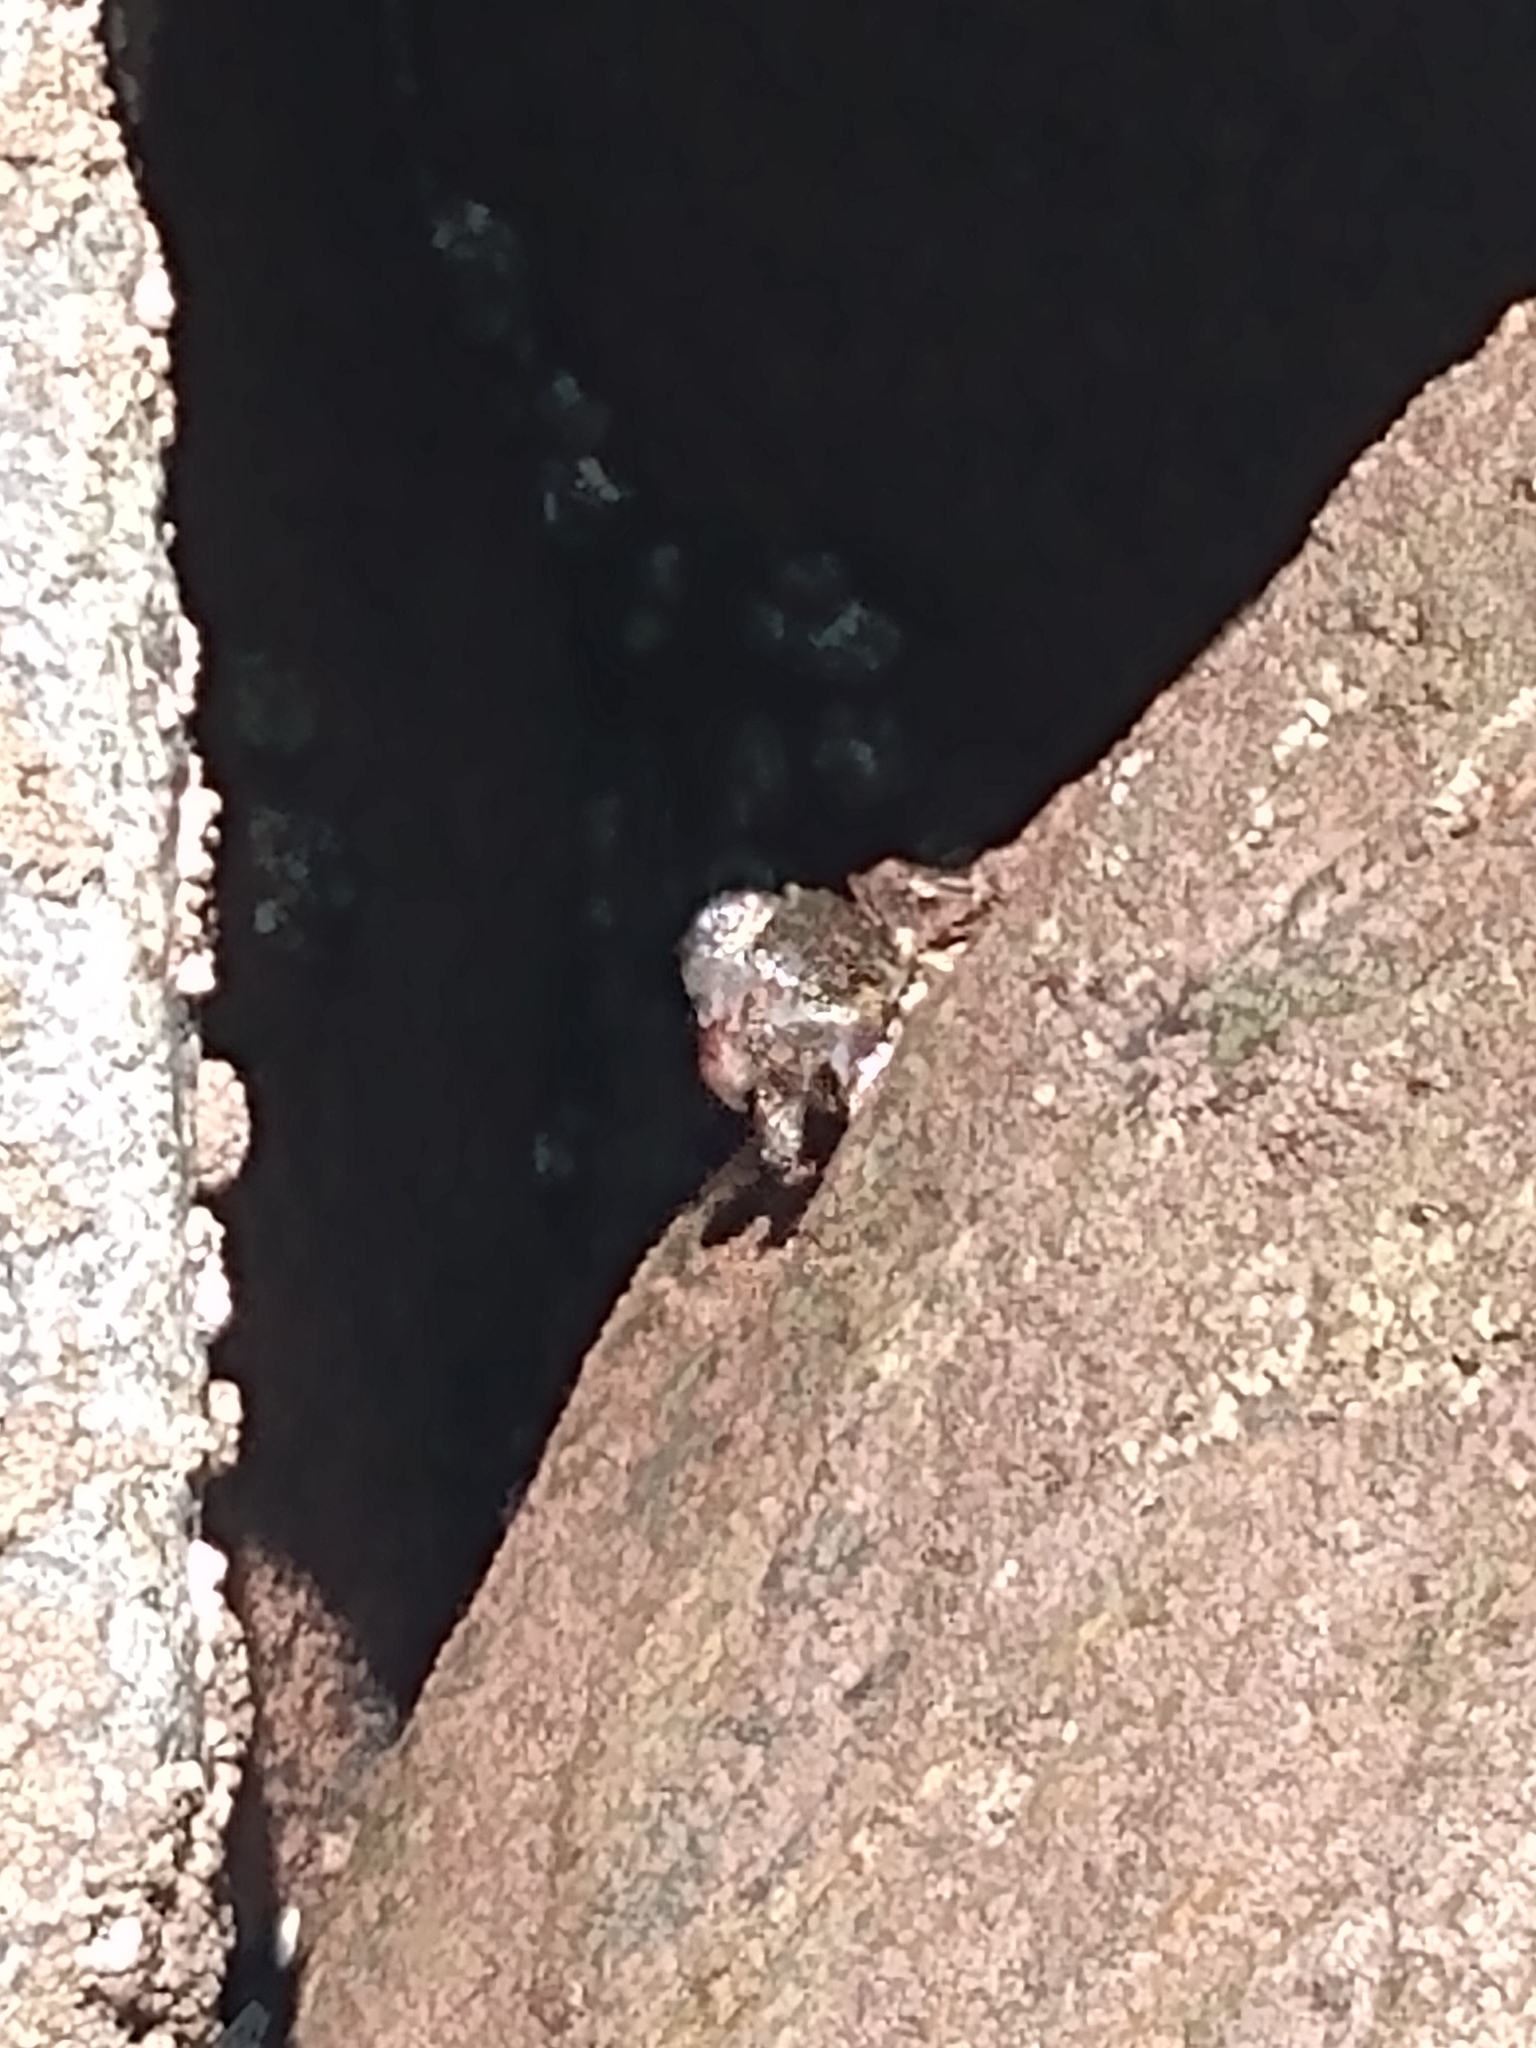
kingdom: Animalia
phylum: Arthropoda
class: Malacostraca
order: Decapoda
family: Grapsidae
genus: Pachygrapsus
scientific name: Pachygrapsus crassipes
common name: Striped shore crab
